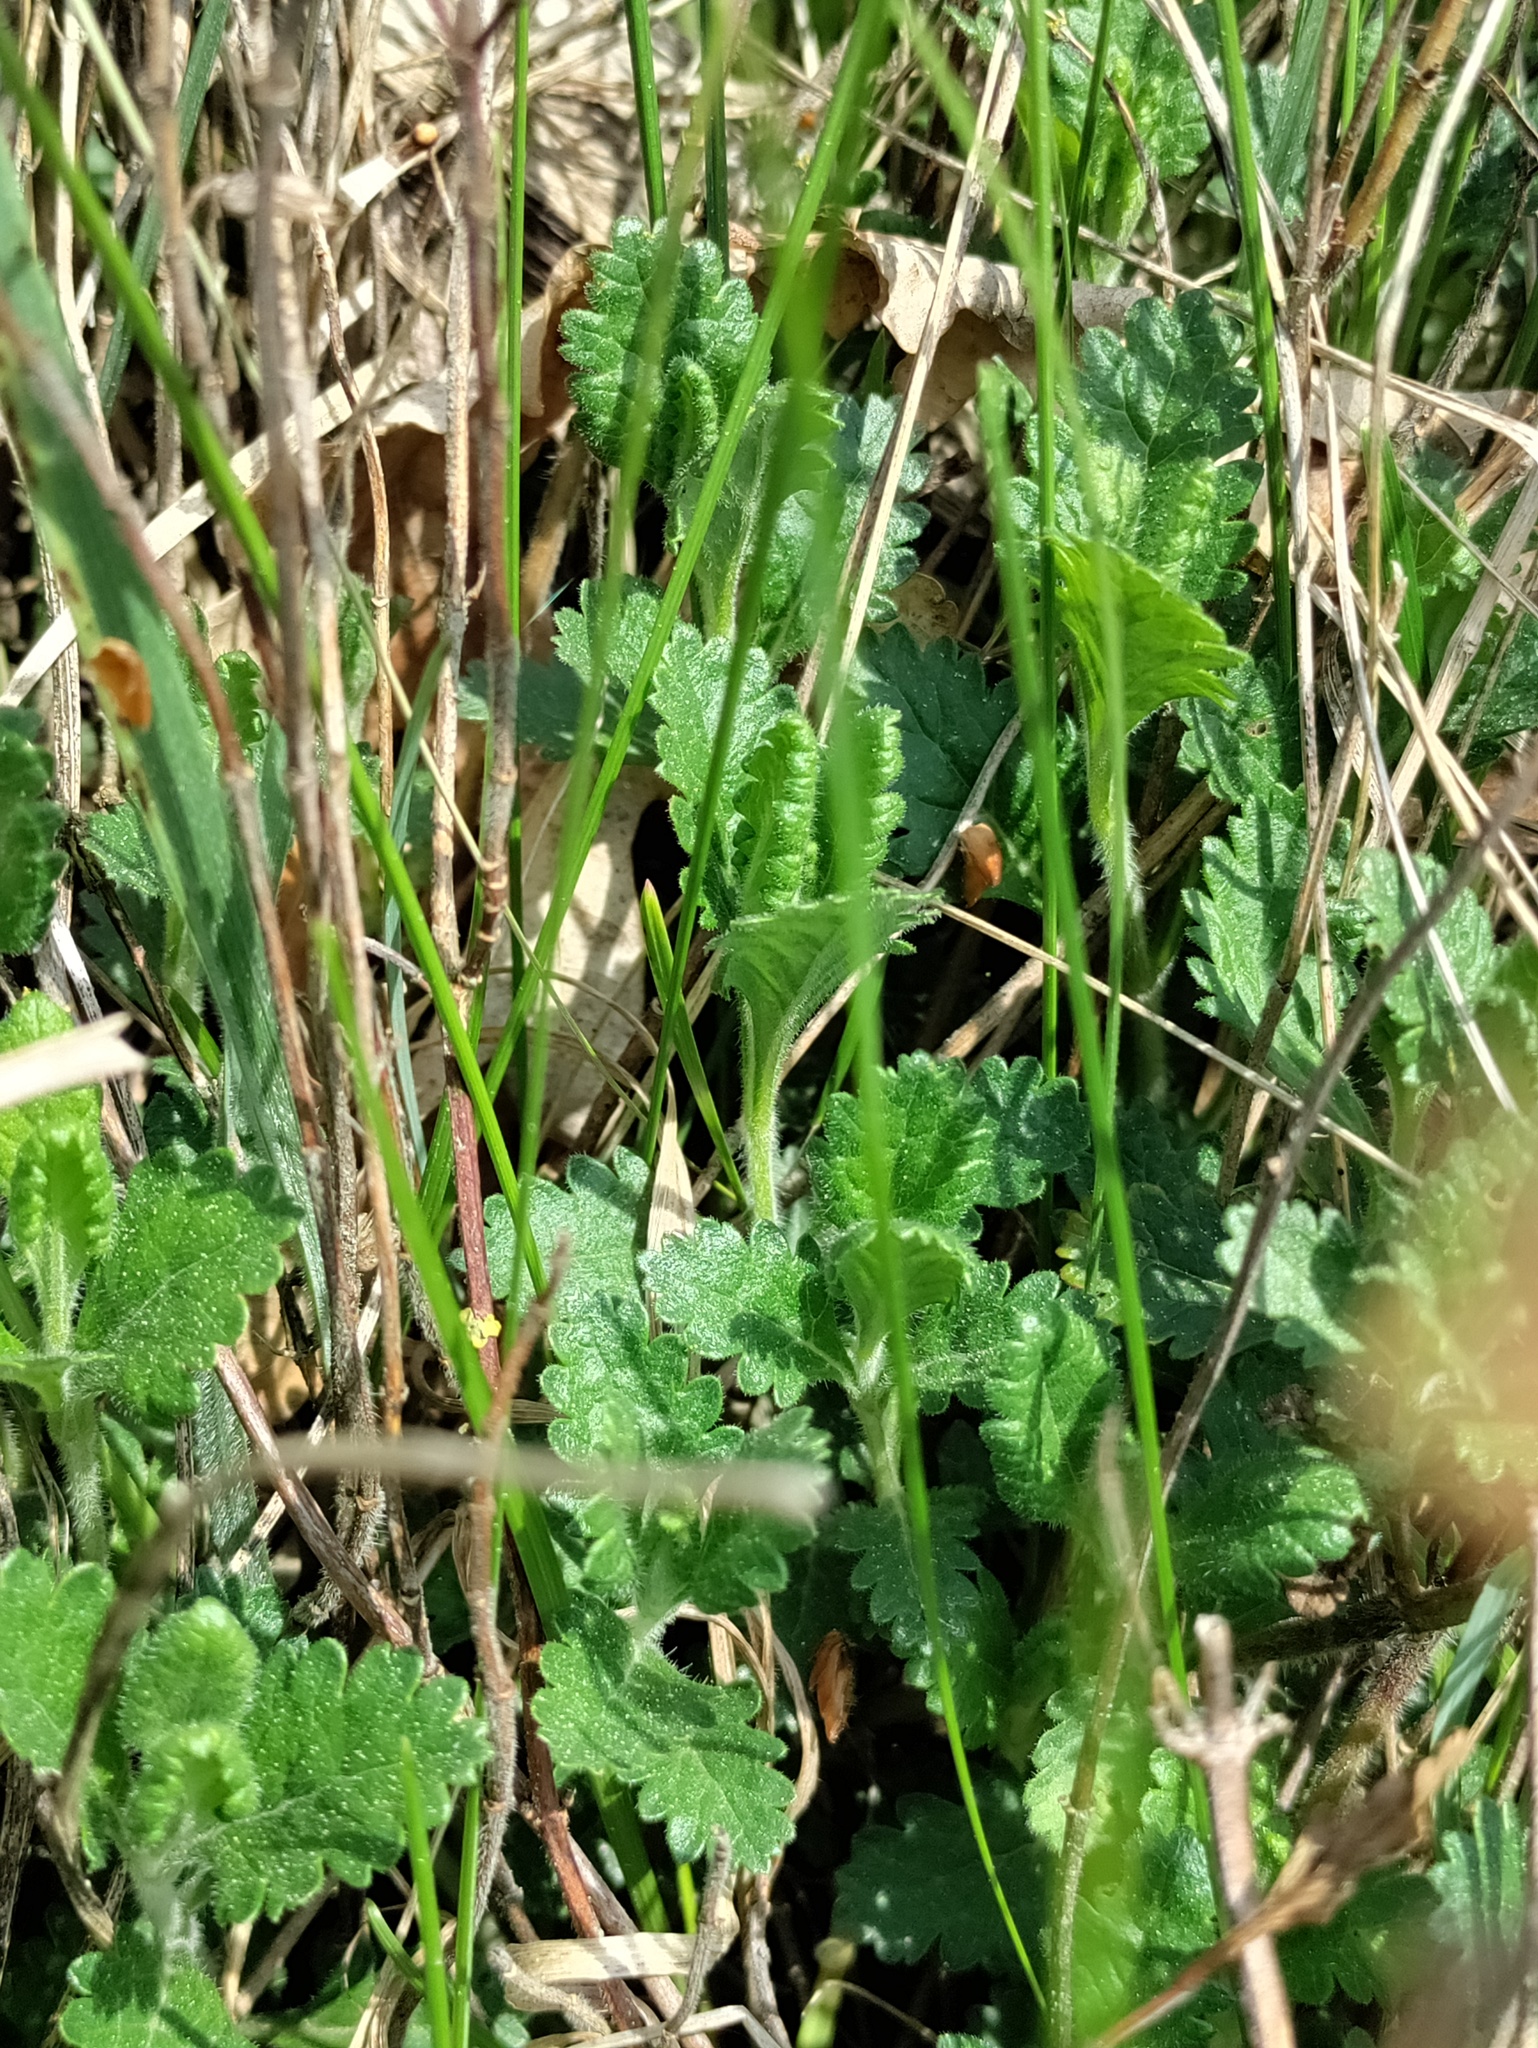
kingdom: Plantae
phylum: Tracheophyta
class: Magnoliopsida
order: Lamiales
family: Lamiaceae
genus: Teucrium
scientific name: Teucrium chamaedrys
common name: Wall germander
